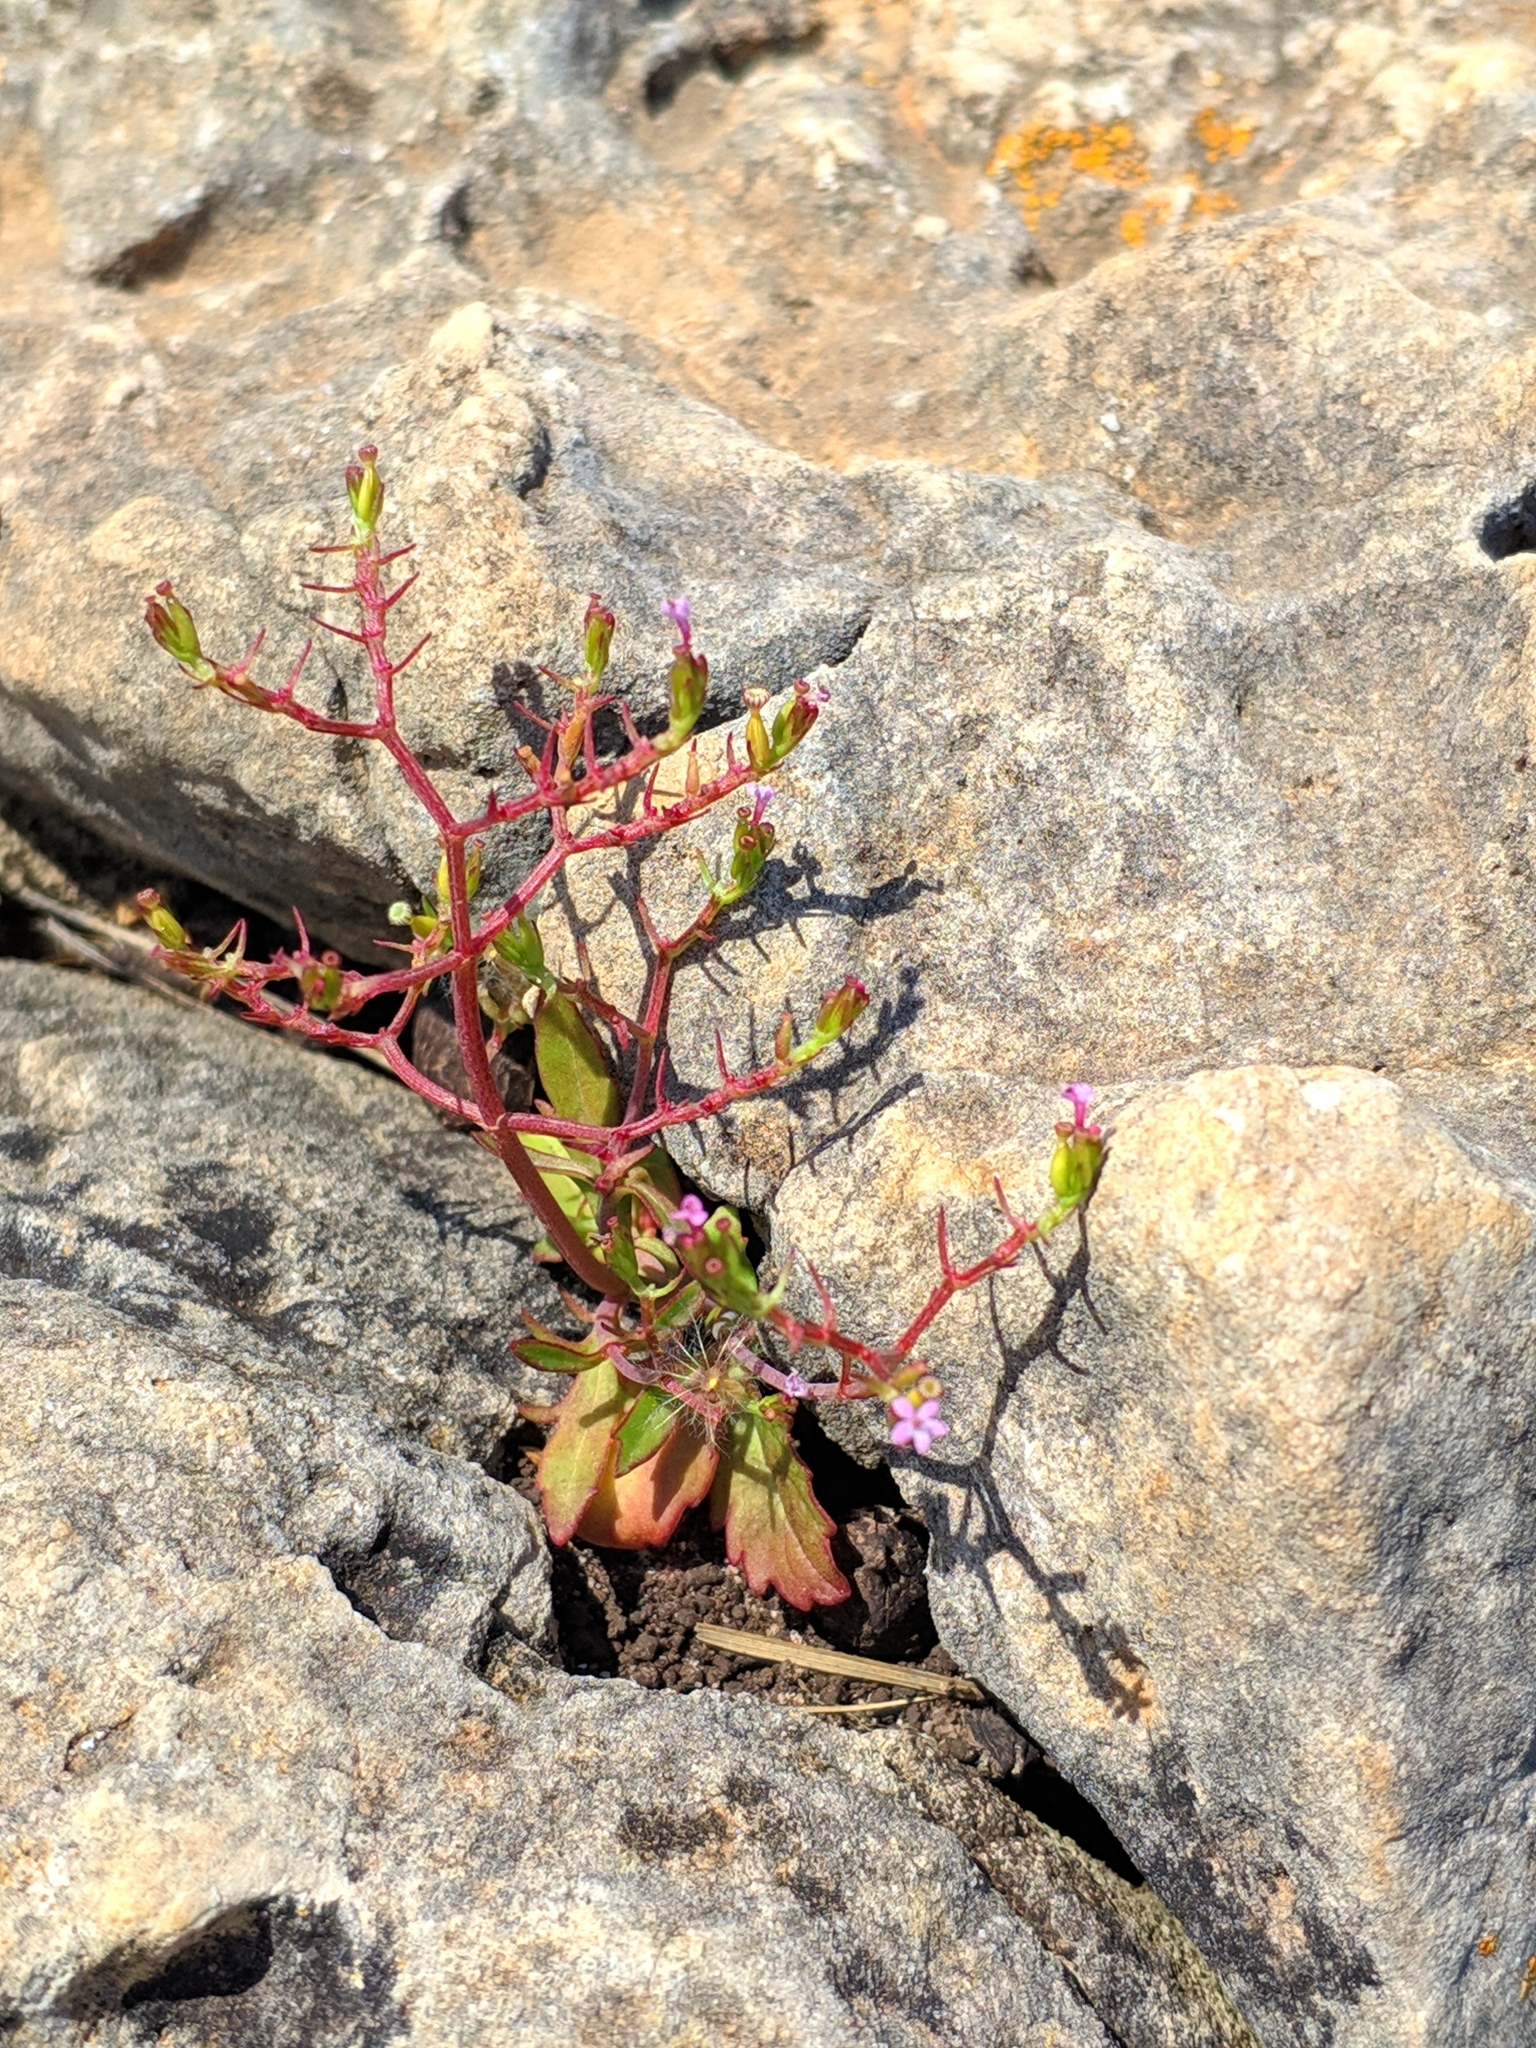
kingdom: Plantae
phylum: Tracheophyta
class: Magnoliopsida
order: Dipsacales
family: Caprifoliaceae
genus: Centranthus
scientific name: Centranthus calcitrapae
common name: Annual valerian
